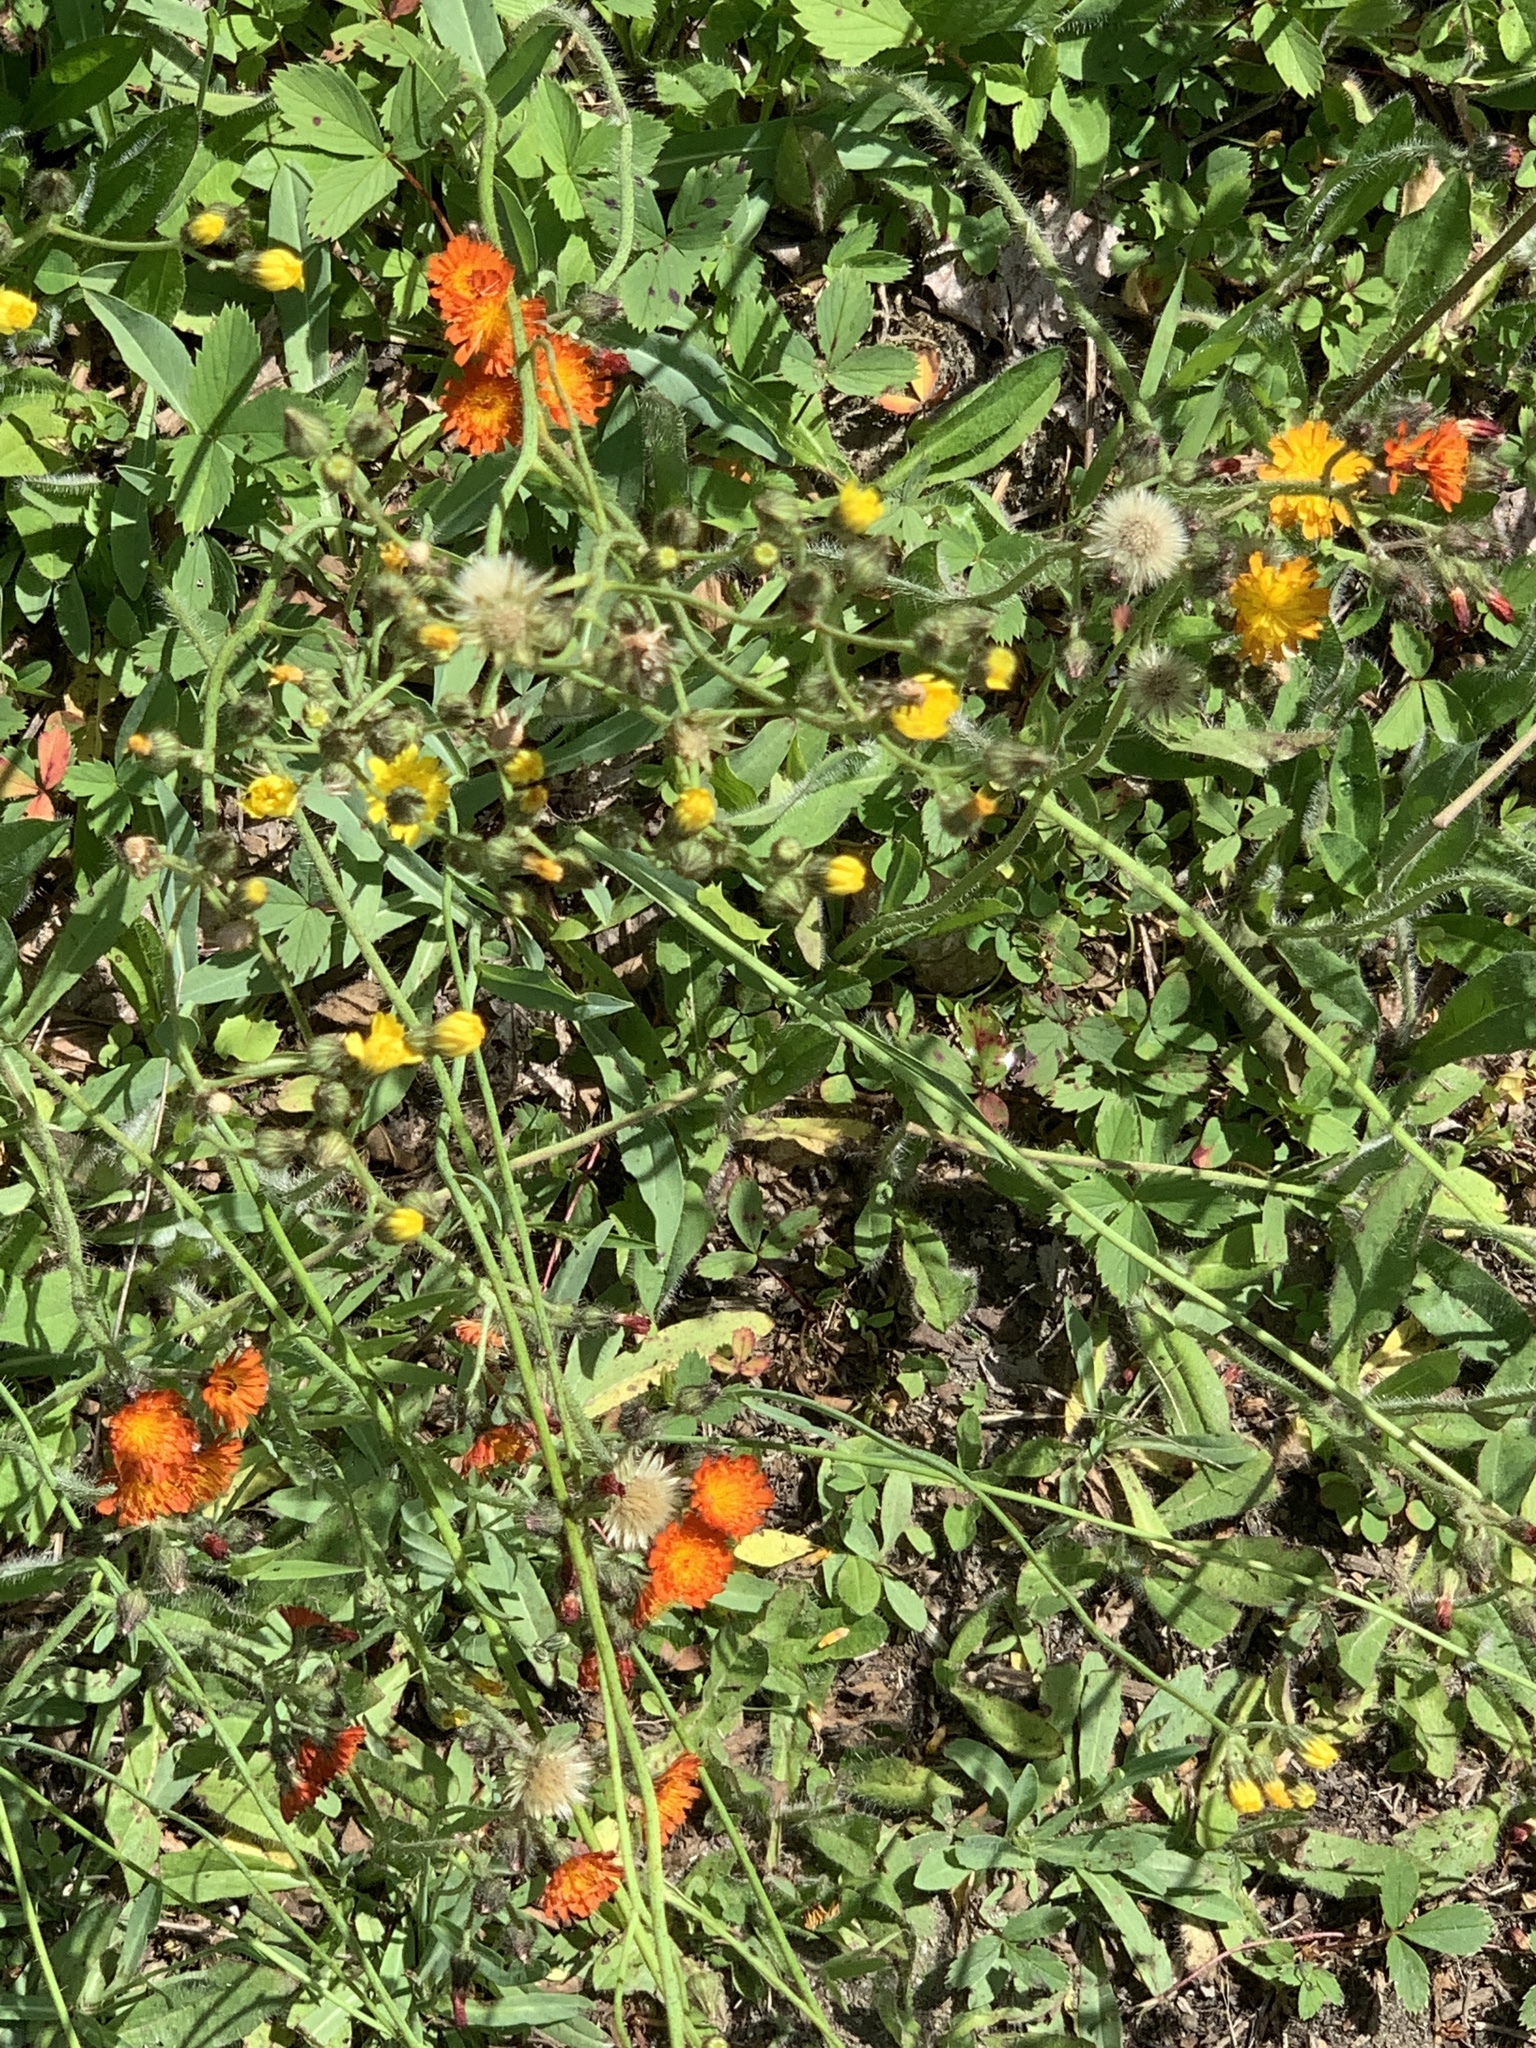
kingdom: Plantae
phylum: Tracheophyta
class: Magnoliopsida
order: Asterales
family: Asteraceae
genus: Pilosella
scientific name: Pilosella aurantiaca
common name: Fox-and-cubs
